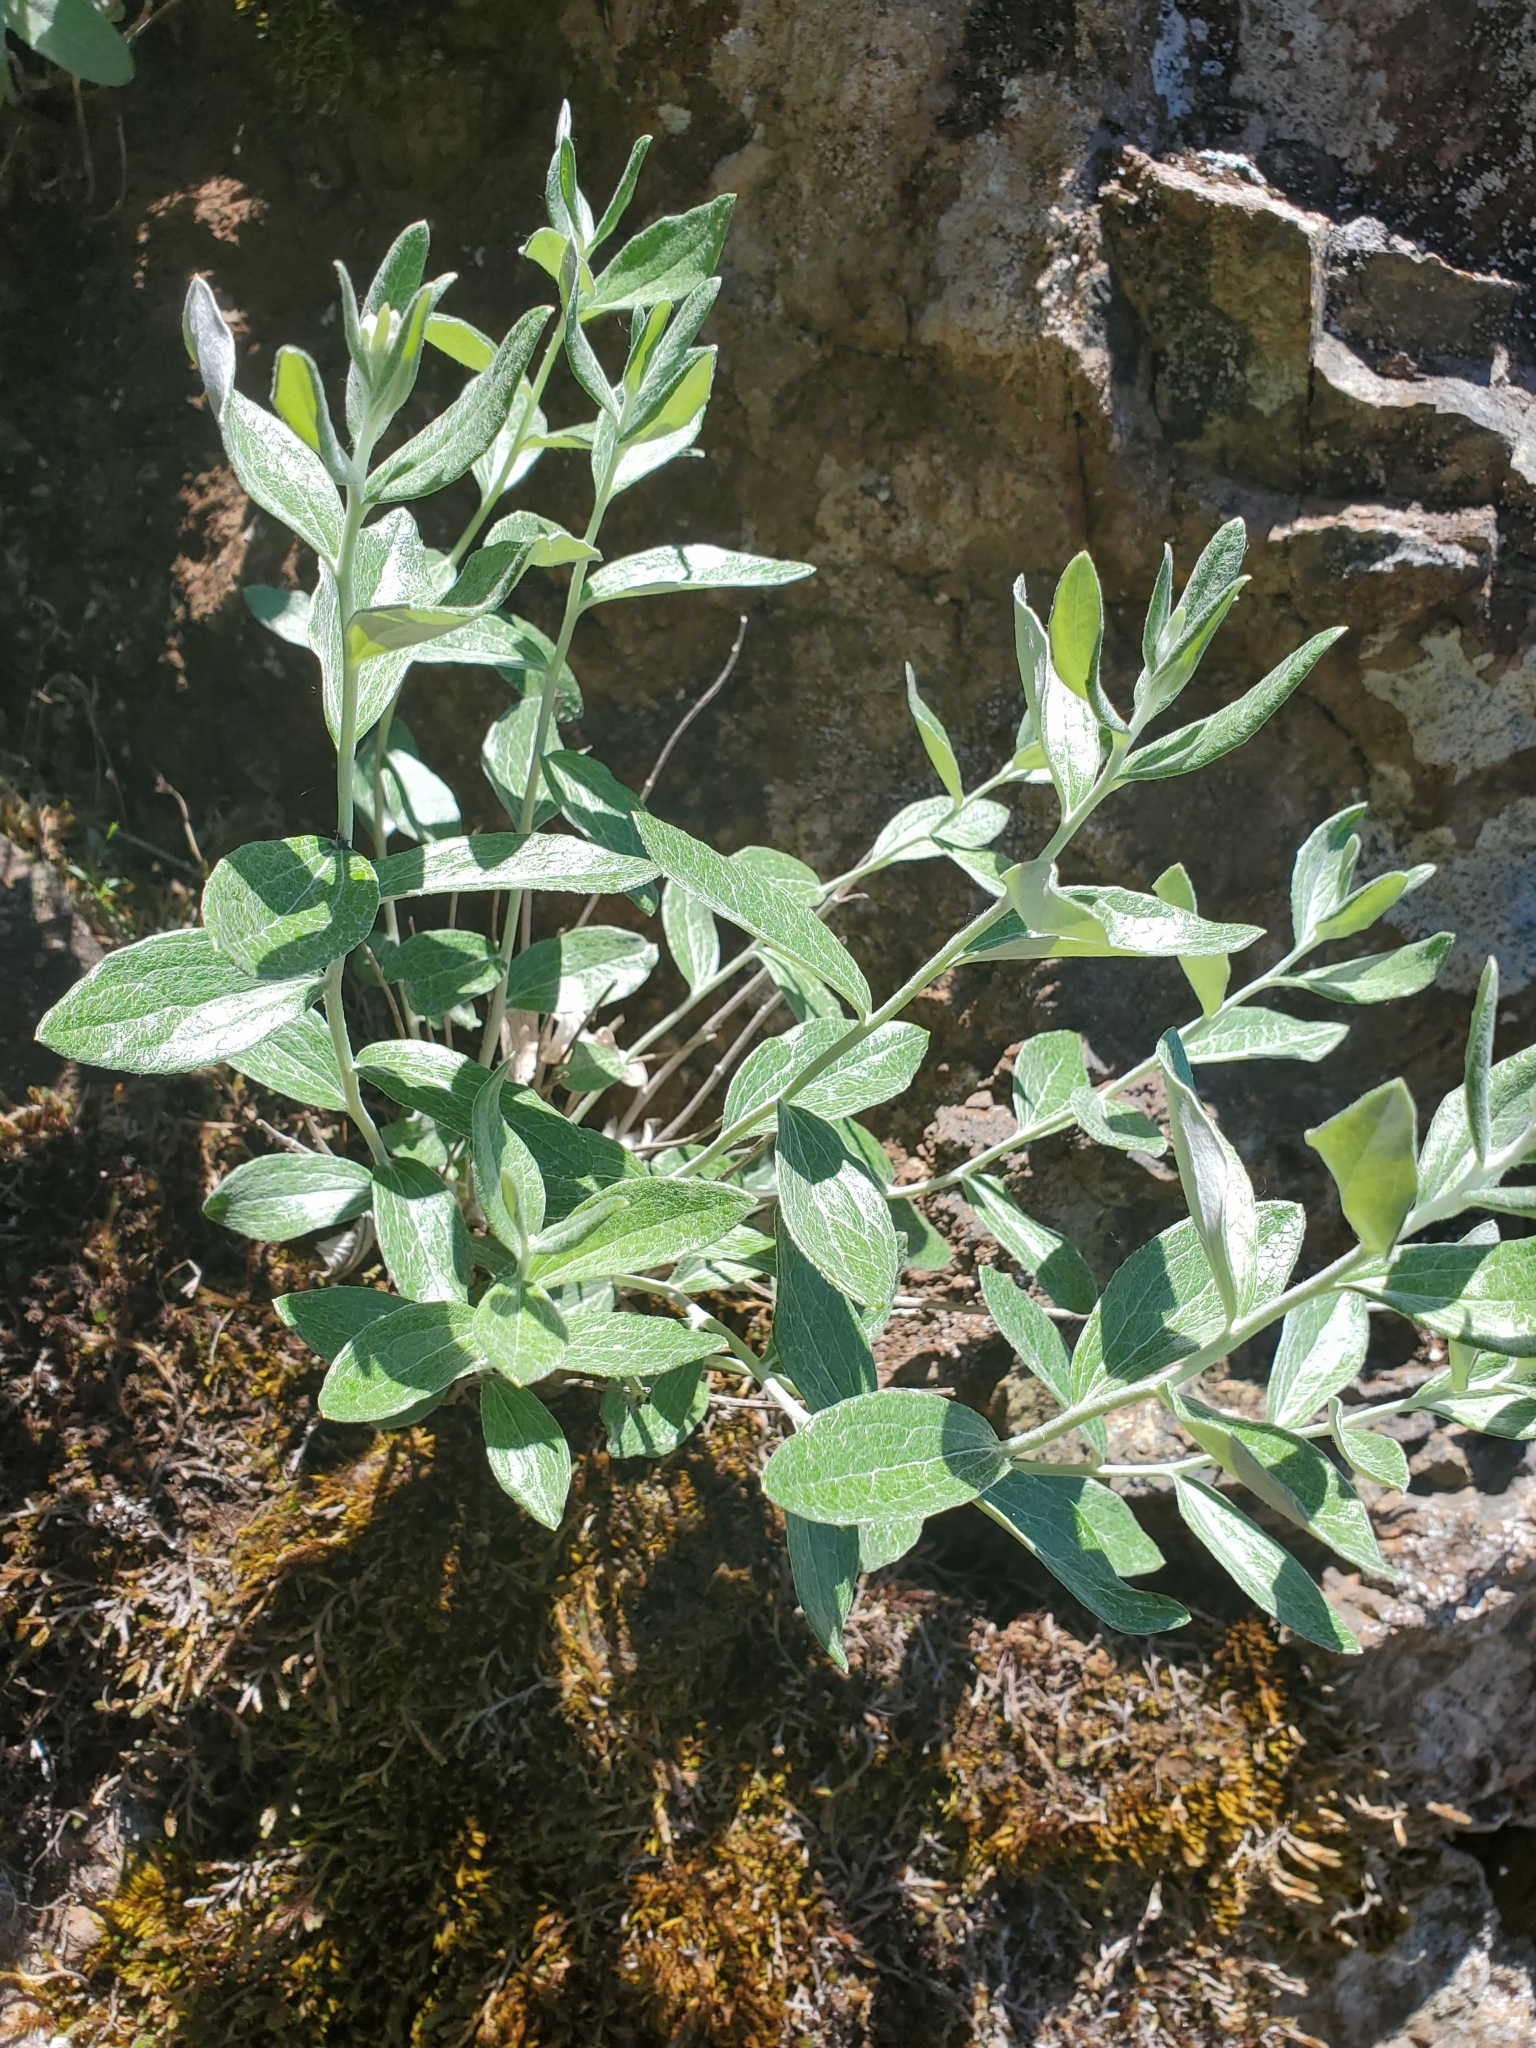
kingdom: Plantae
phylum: Tracheophyta
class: Magnoliopsida
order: Asterales
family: Asteraceae
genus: Luina
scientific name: Luina hypoleuca
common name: Little-leaved luina
